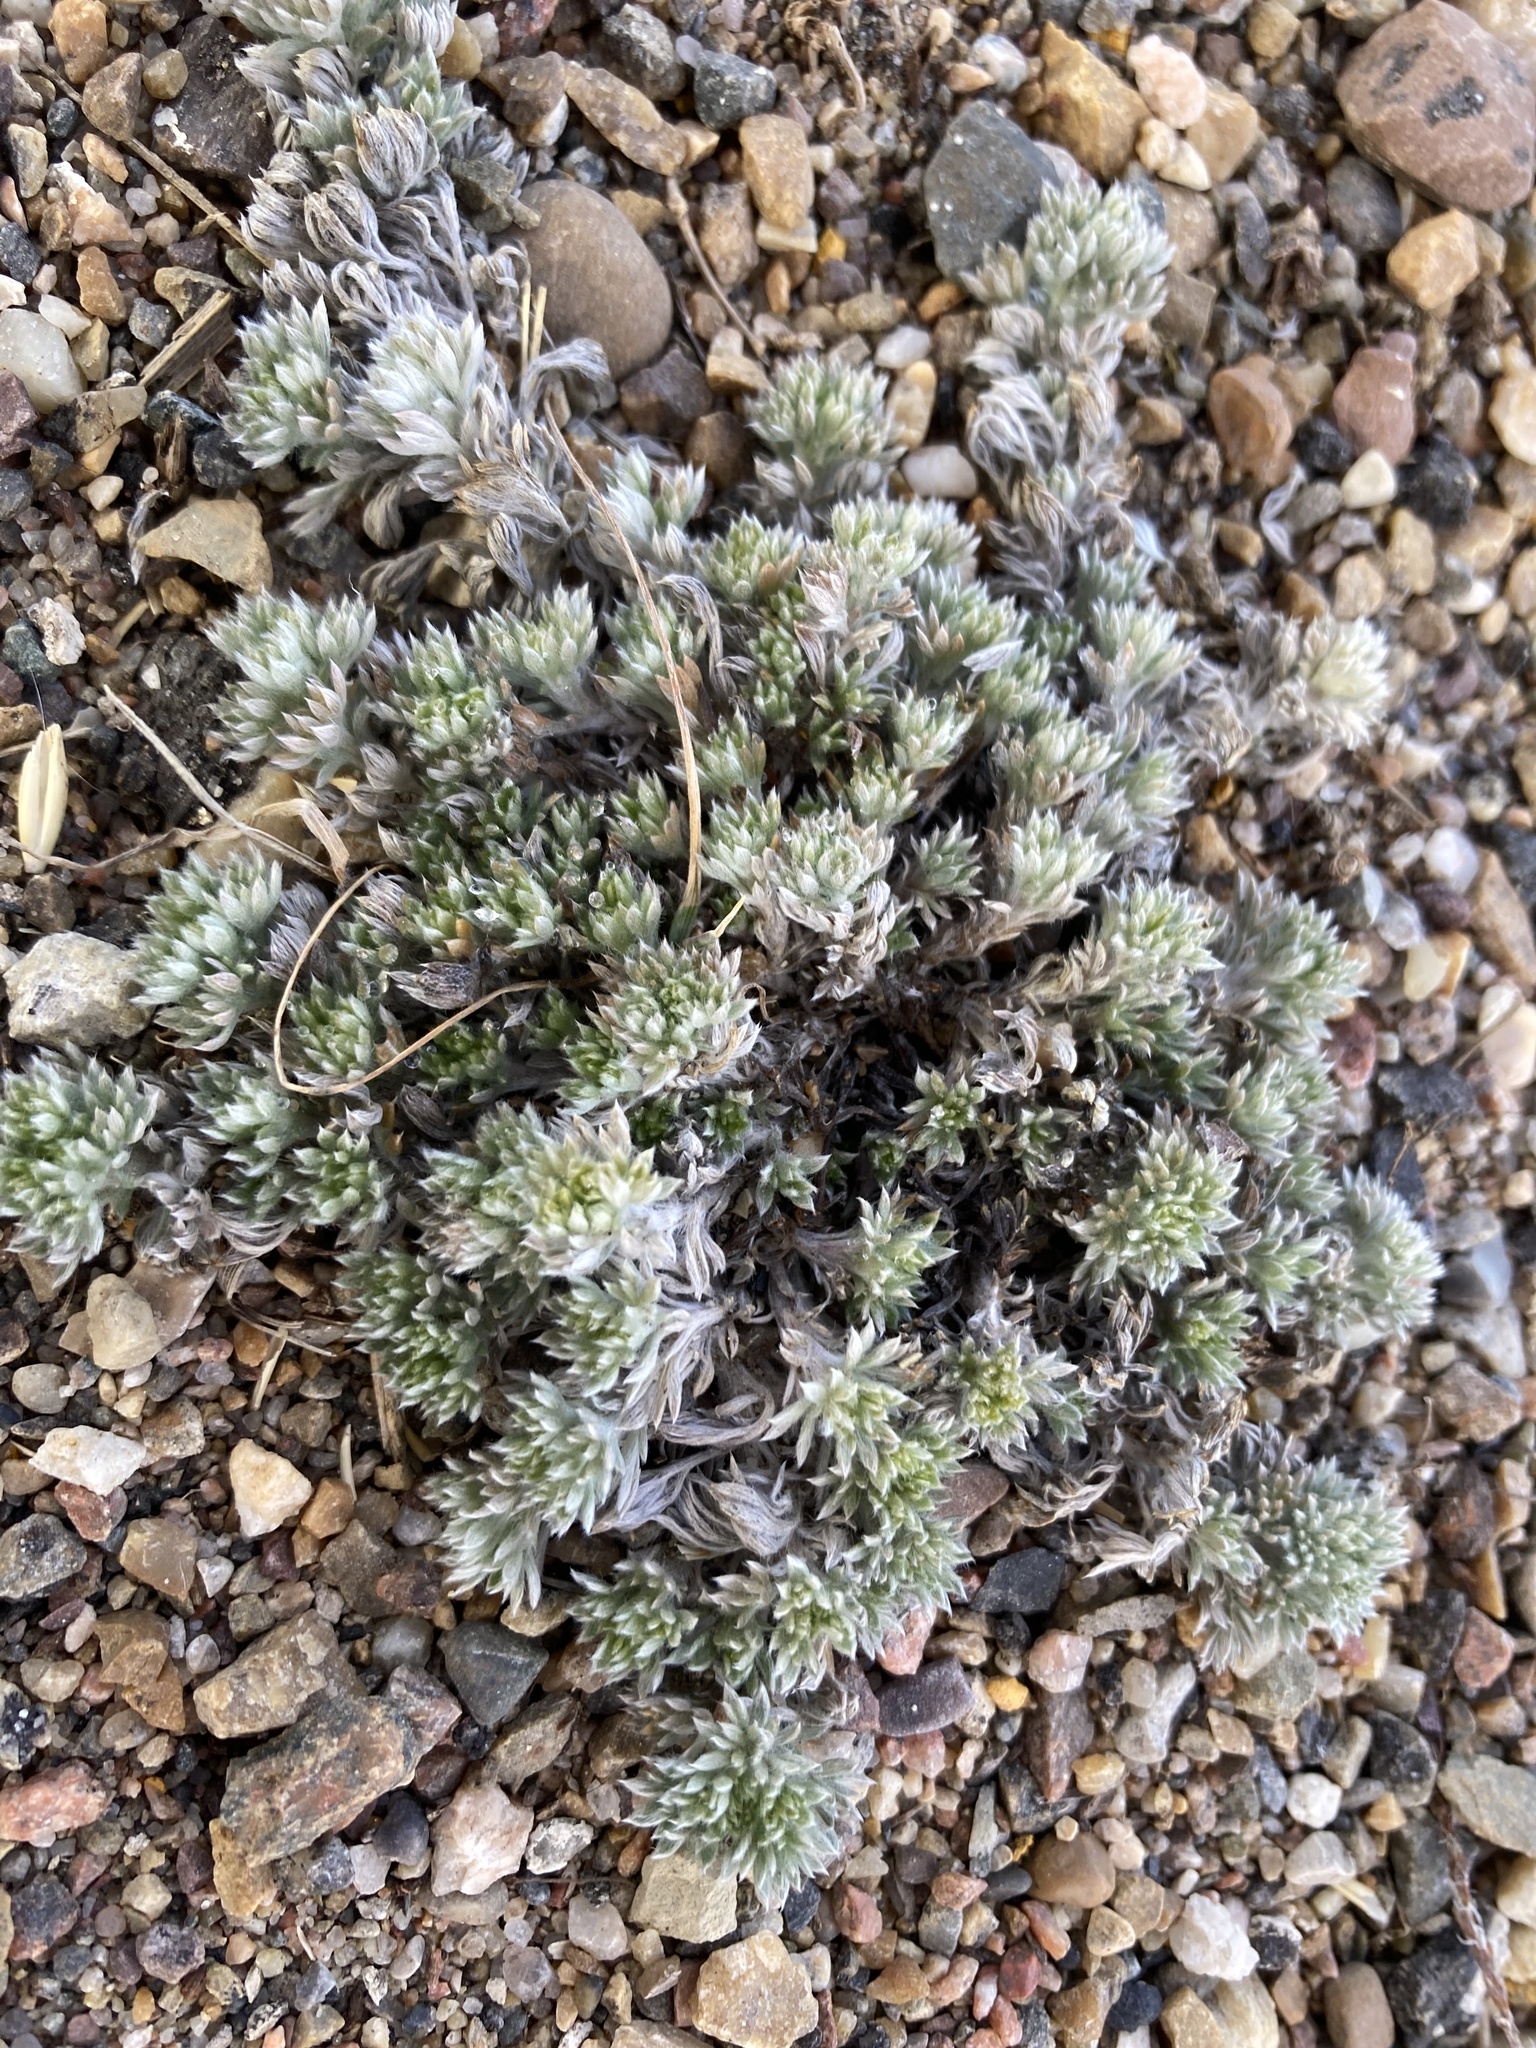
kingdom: Plantae
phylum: Tracheophyta
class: Magnoliopsida
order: Asterales
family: Asteraceae
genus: Artemisia
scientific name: Artemisia frigida
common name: Prairie sagewort
